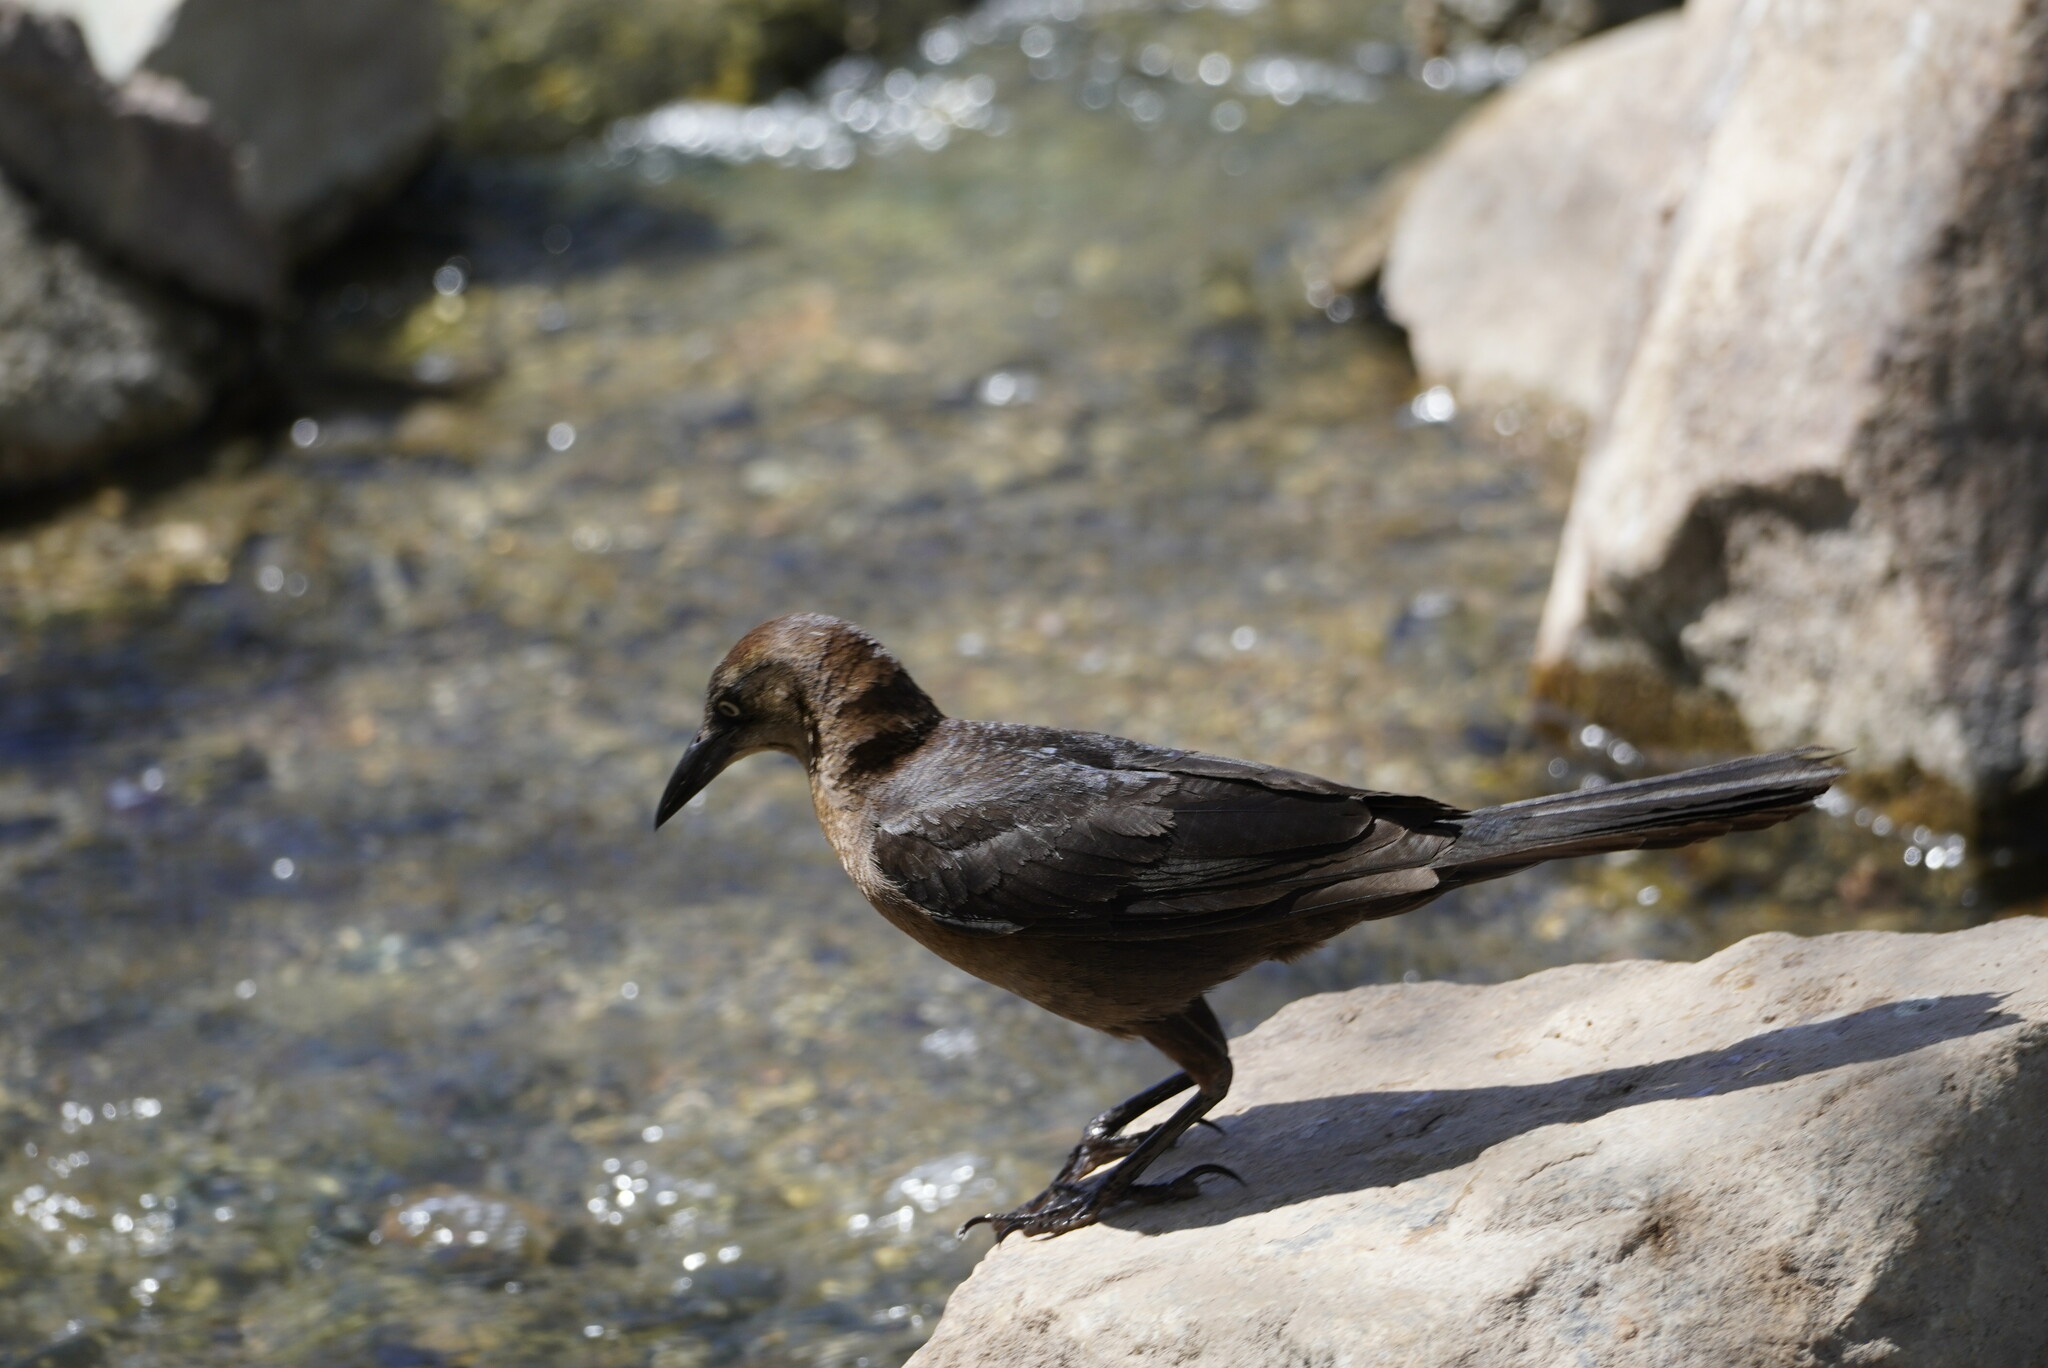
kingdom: Animalia
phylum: Chordata
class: Aves
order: Passeriformes
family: Icteridae
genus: Quiscalus
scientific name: Quiscalus mexicanus
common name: Great-tailed grackle
